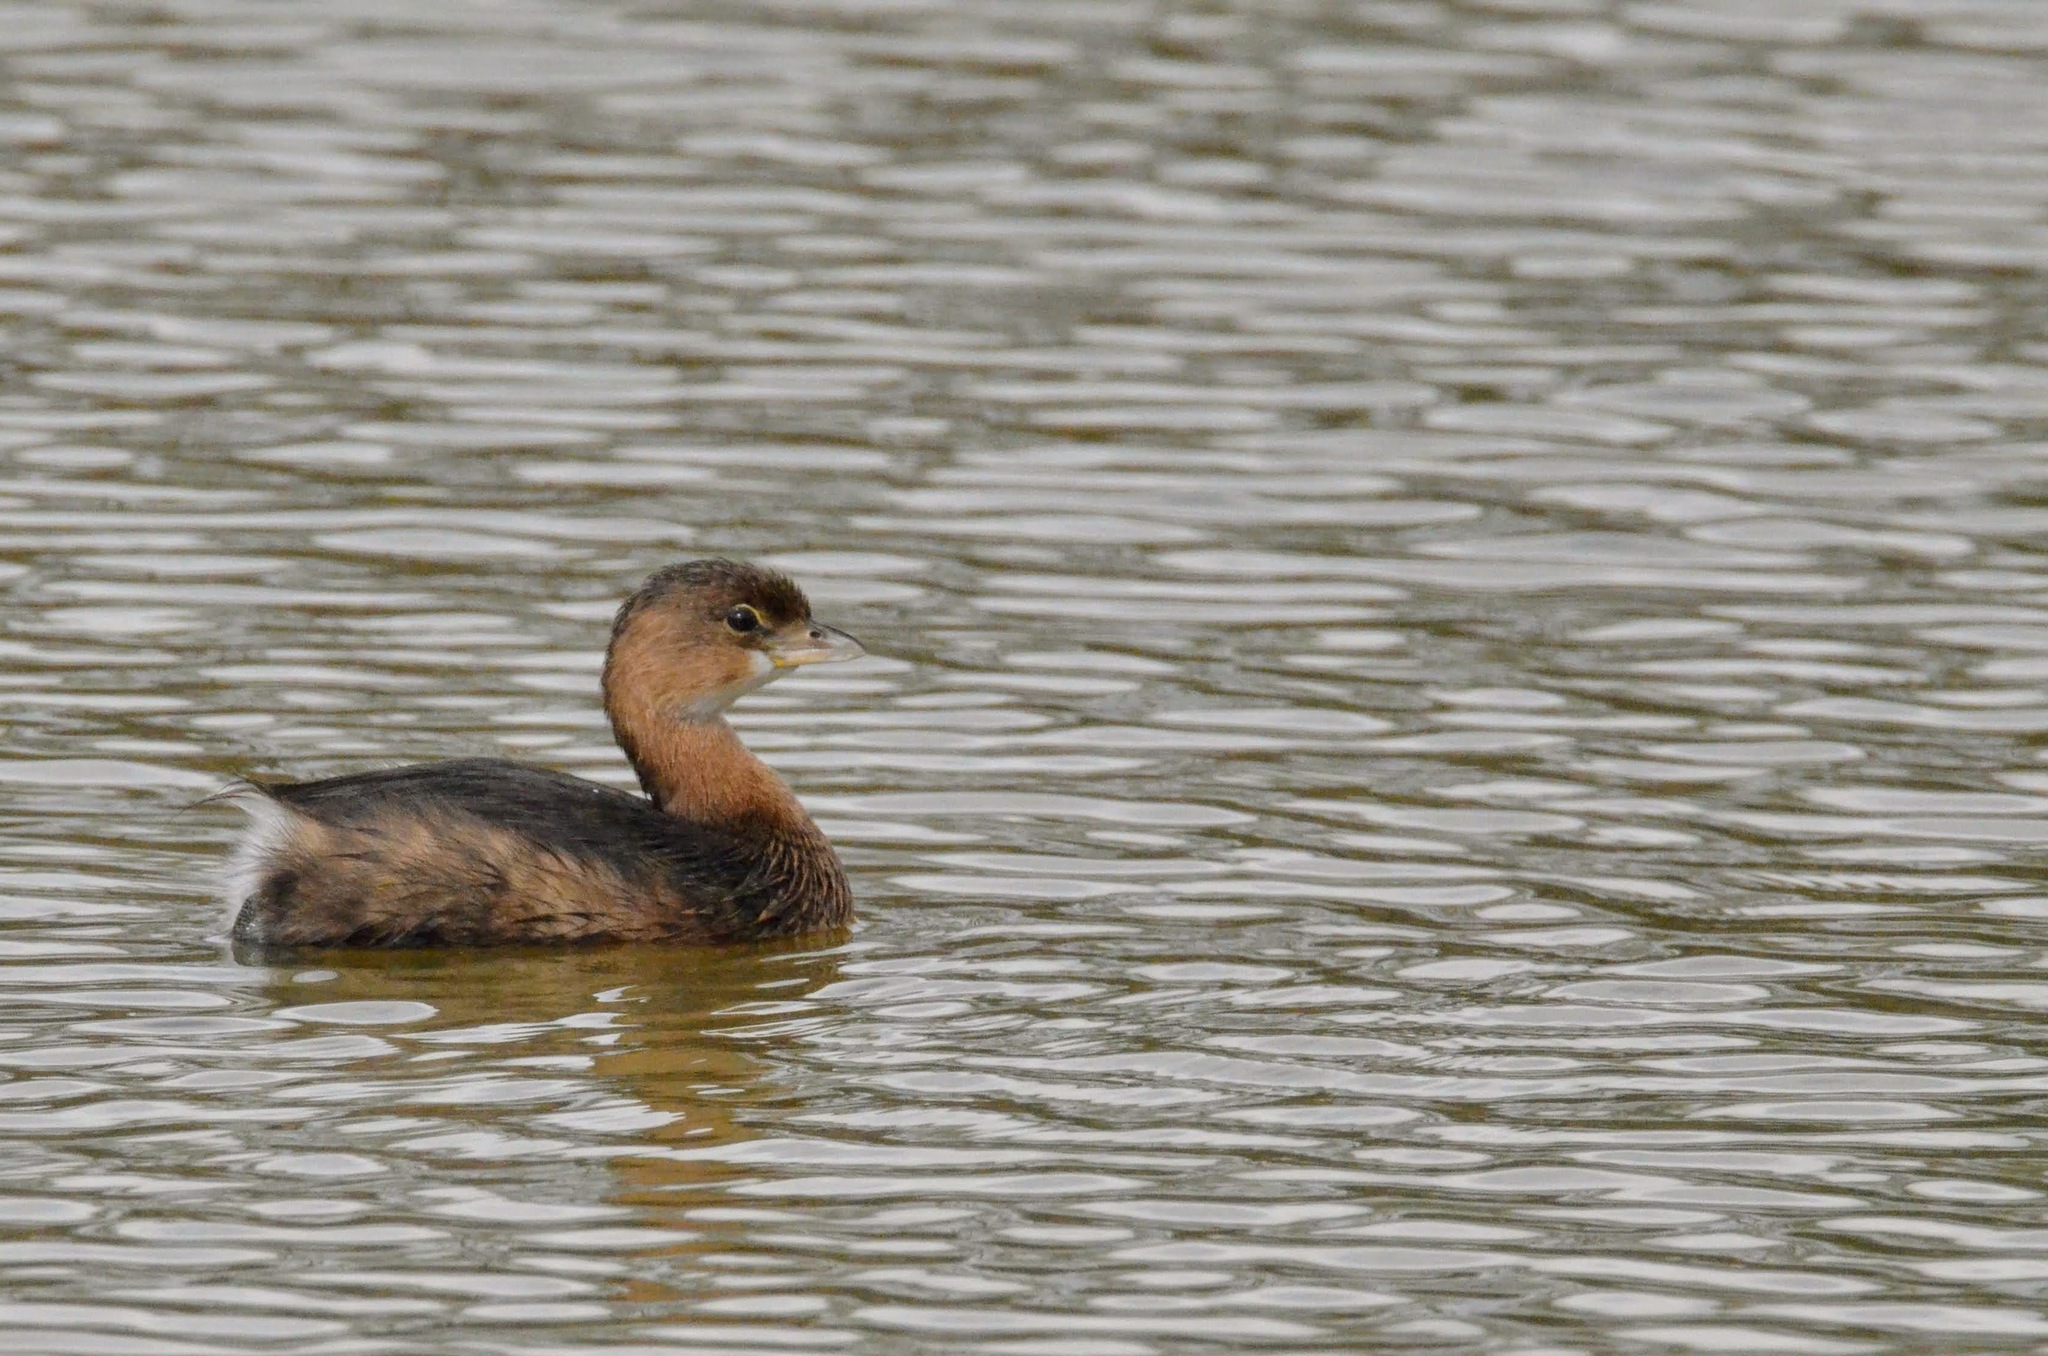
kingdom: Animalia
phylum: Chordata
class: Aves
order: Podicipediformes
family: Podicipedidae
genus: Podilymbus
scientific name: Podilymbus podiceps
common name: Pied-billed grebe
